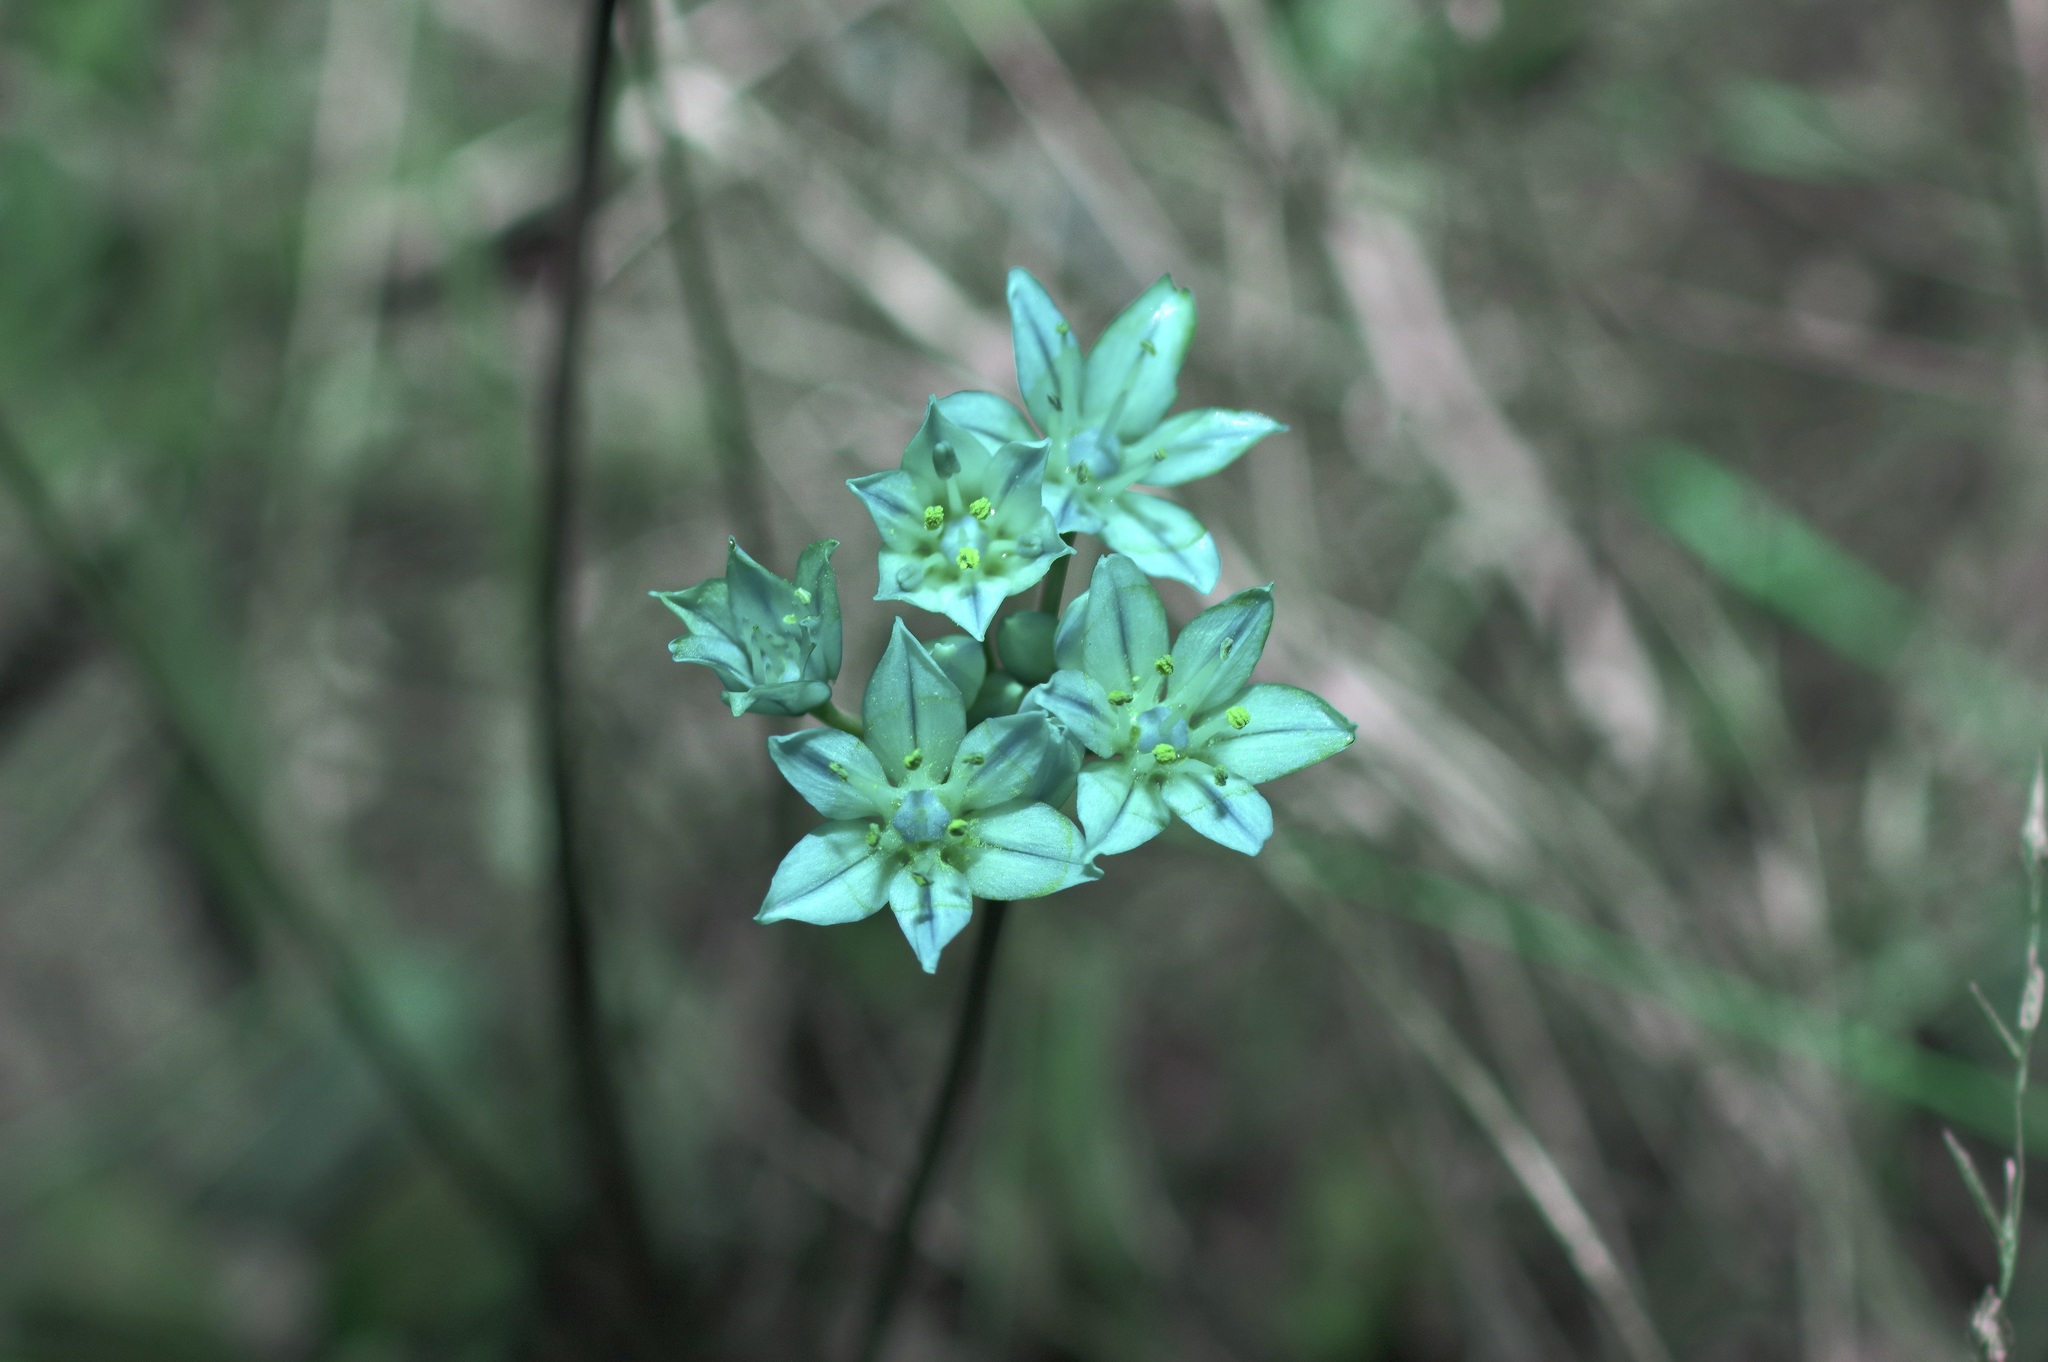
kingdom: Plantae
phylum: Tracheophyta
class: Liliopsida
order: Asparagales
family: Amaryllidaceae
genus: Allium
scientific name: Allium drummondii
